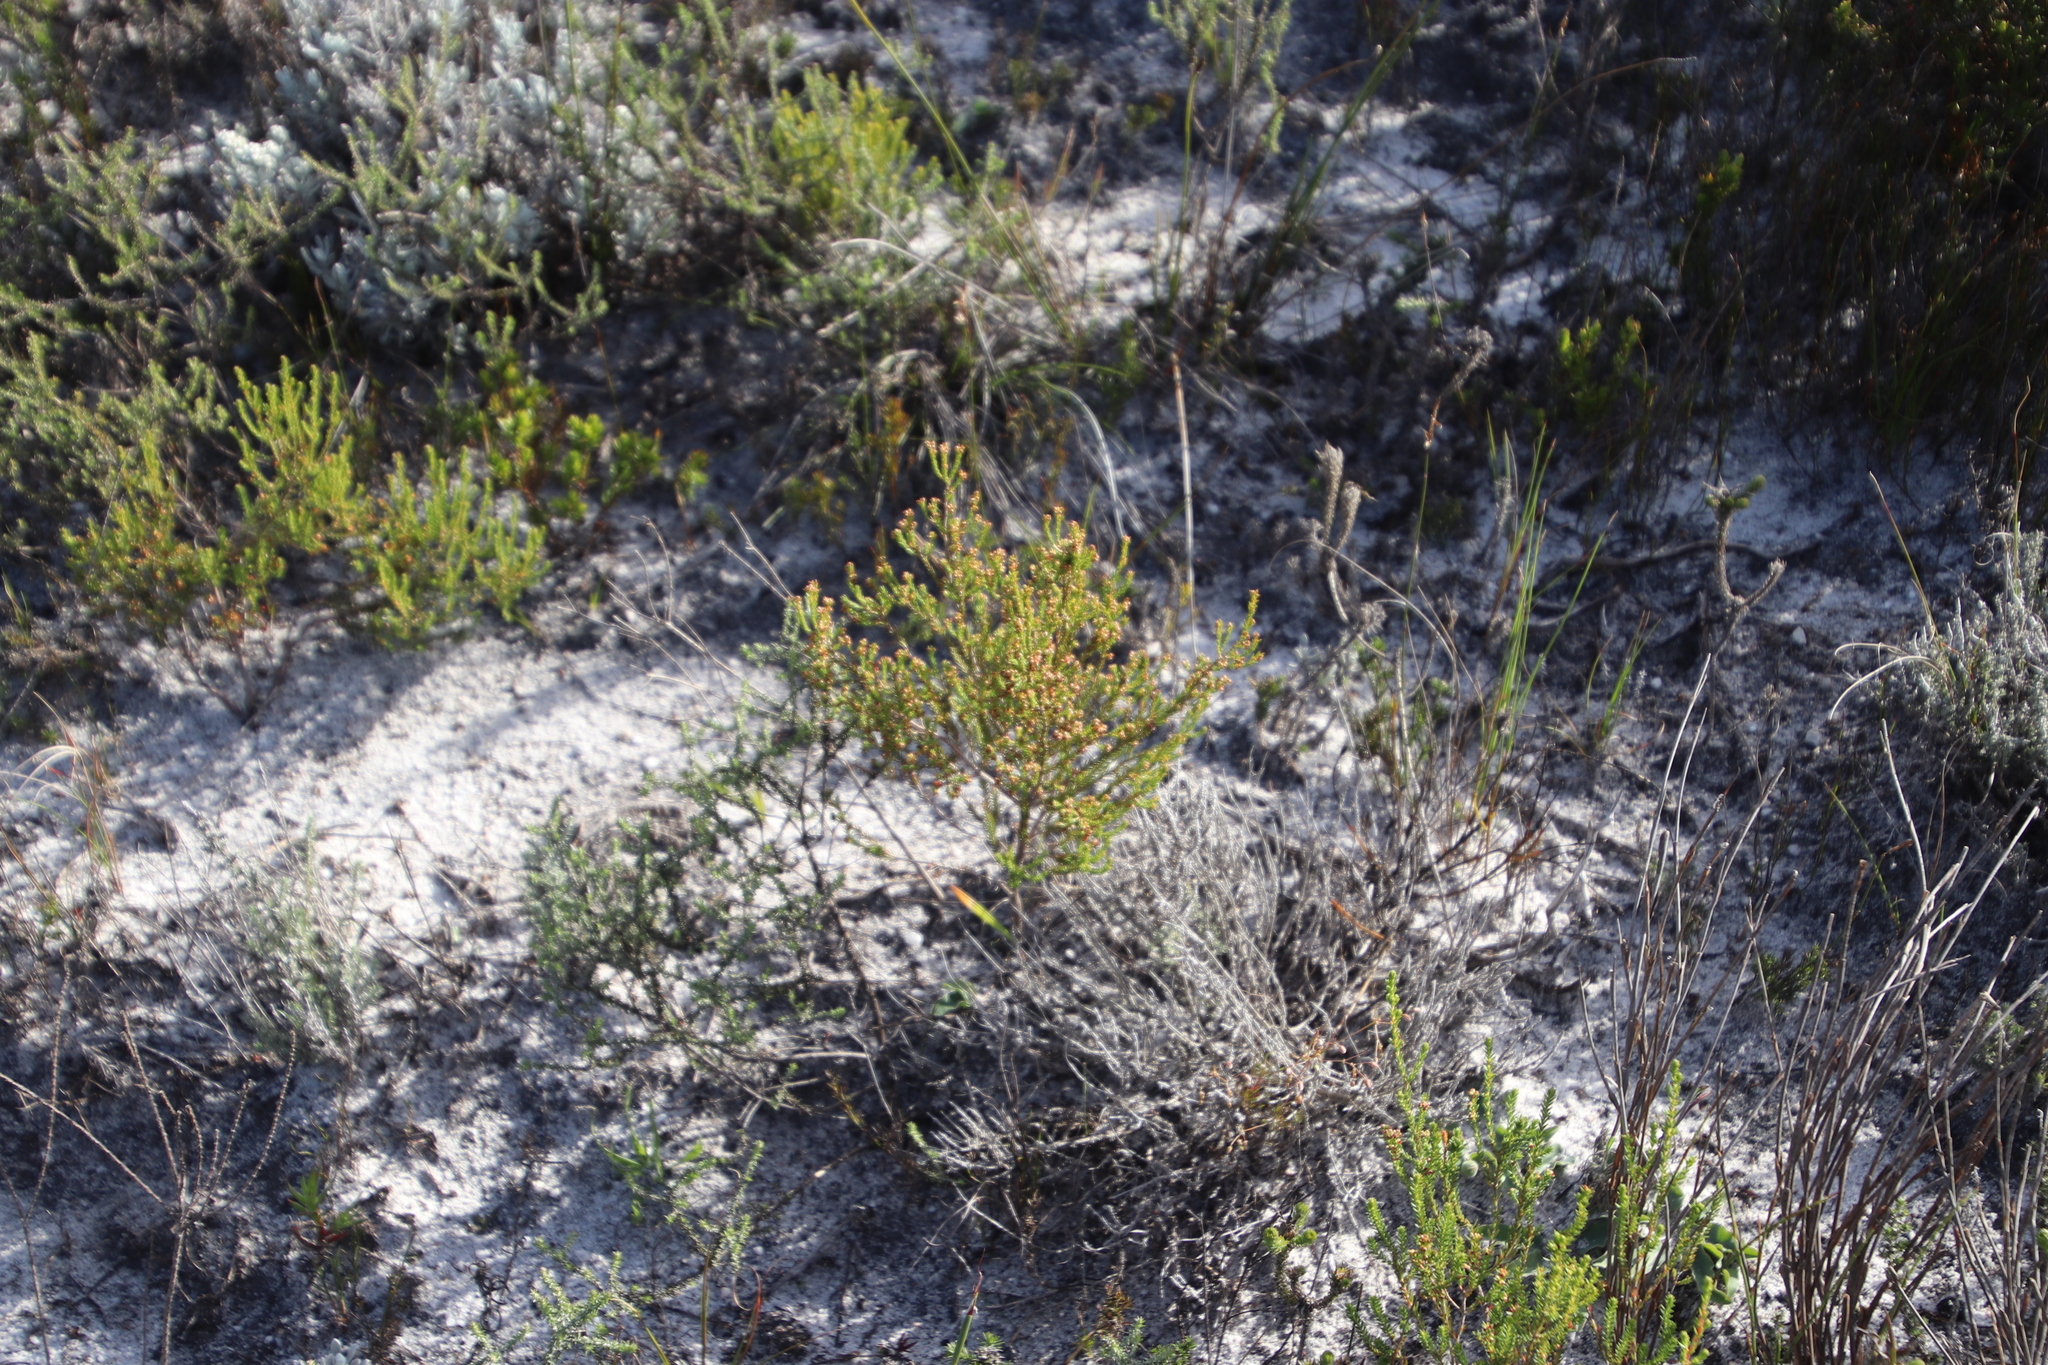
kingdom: Plantae
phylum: Tracheophyta
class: Magnoliopsida
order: Ericales
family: Ericaceae
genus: Erica
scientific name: Erica axillaris
